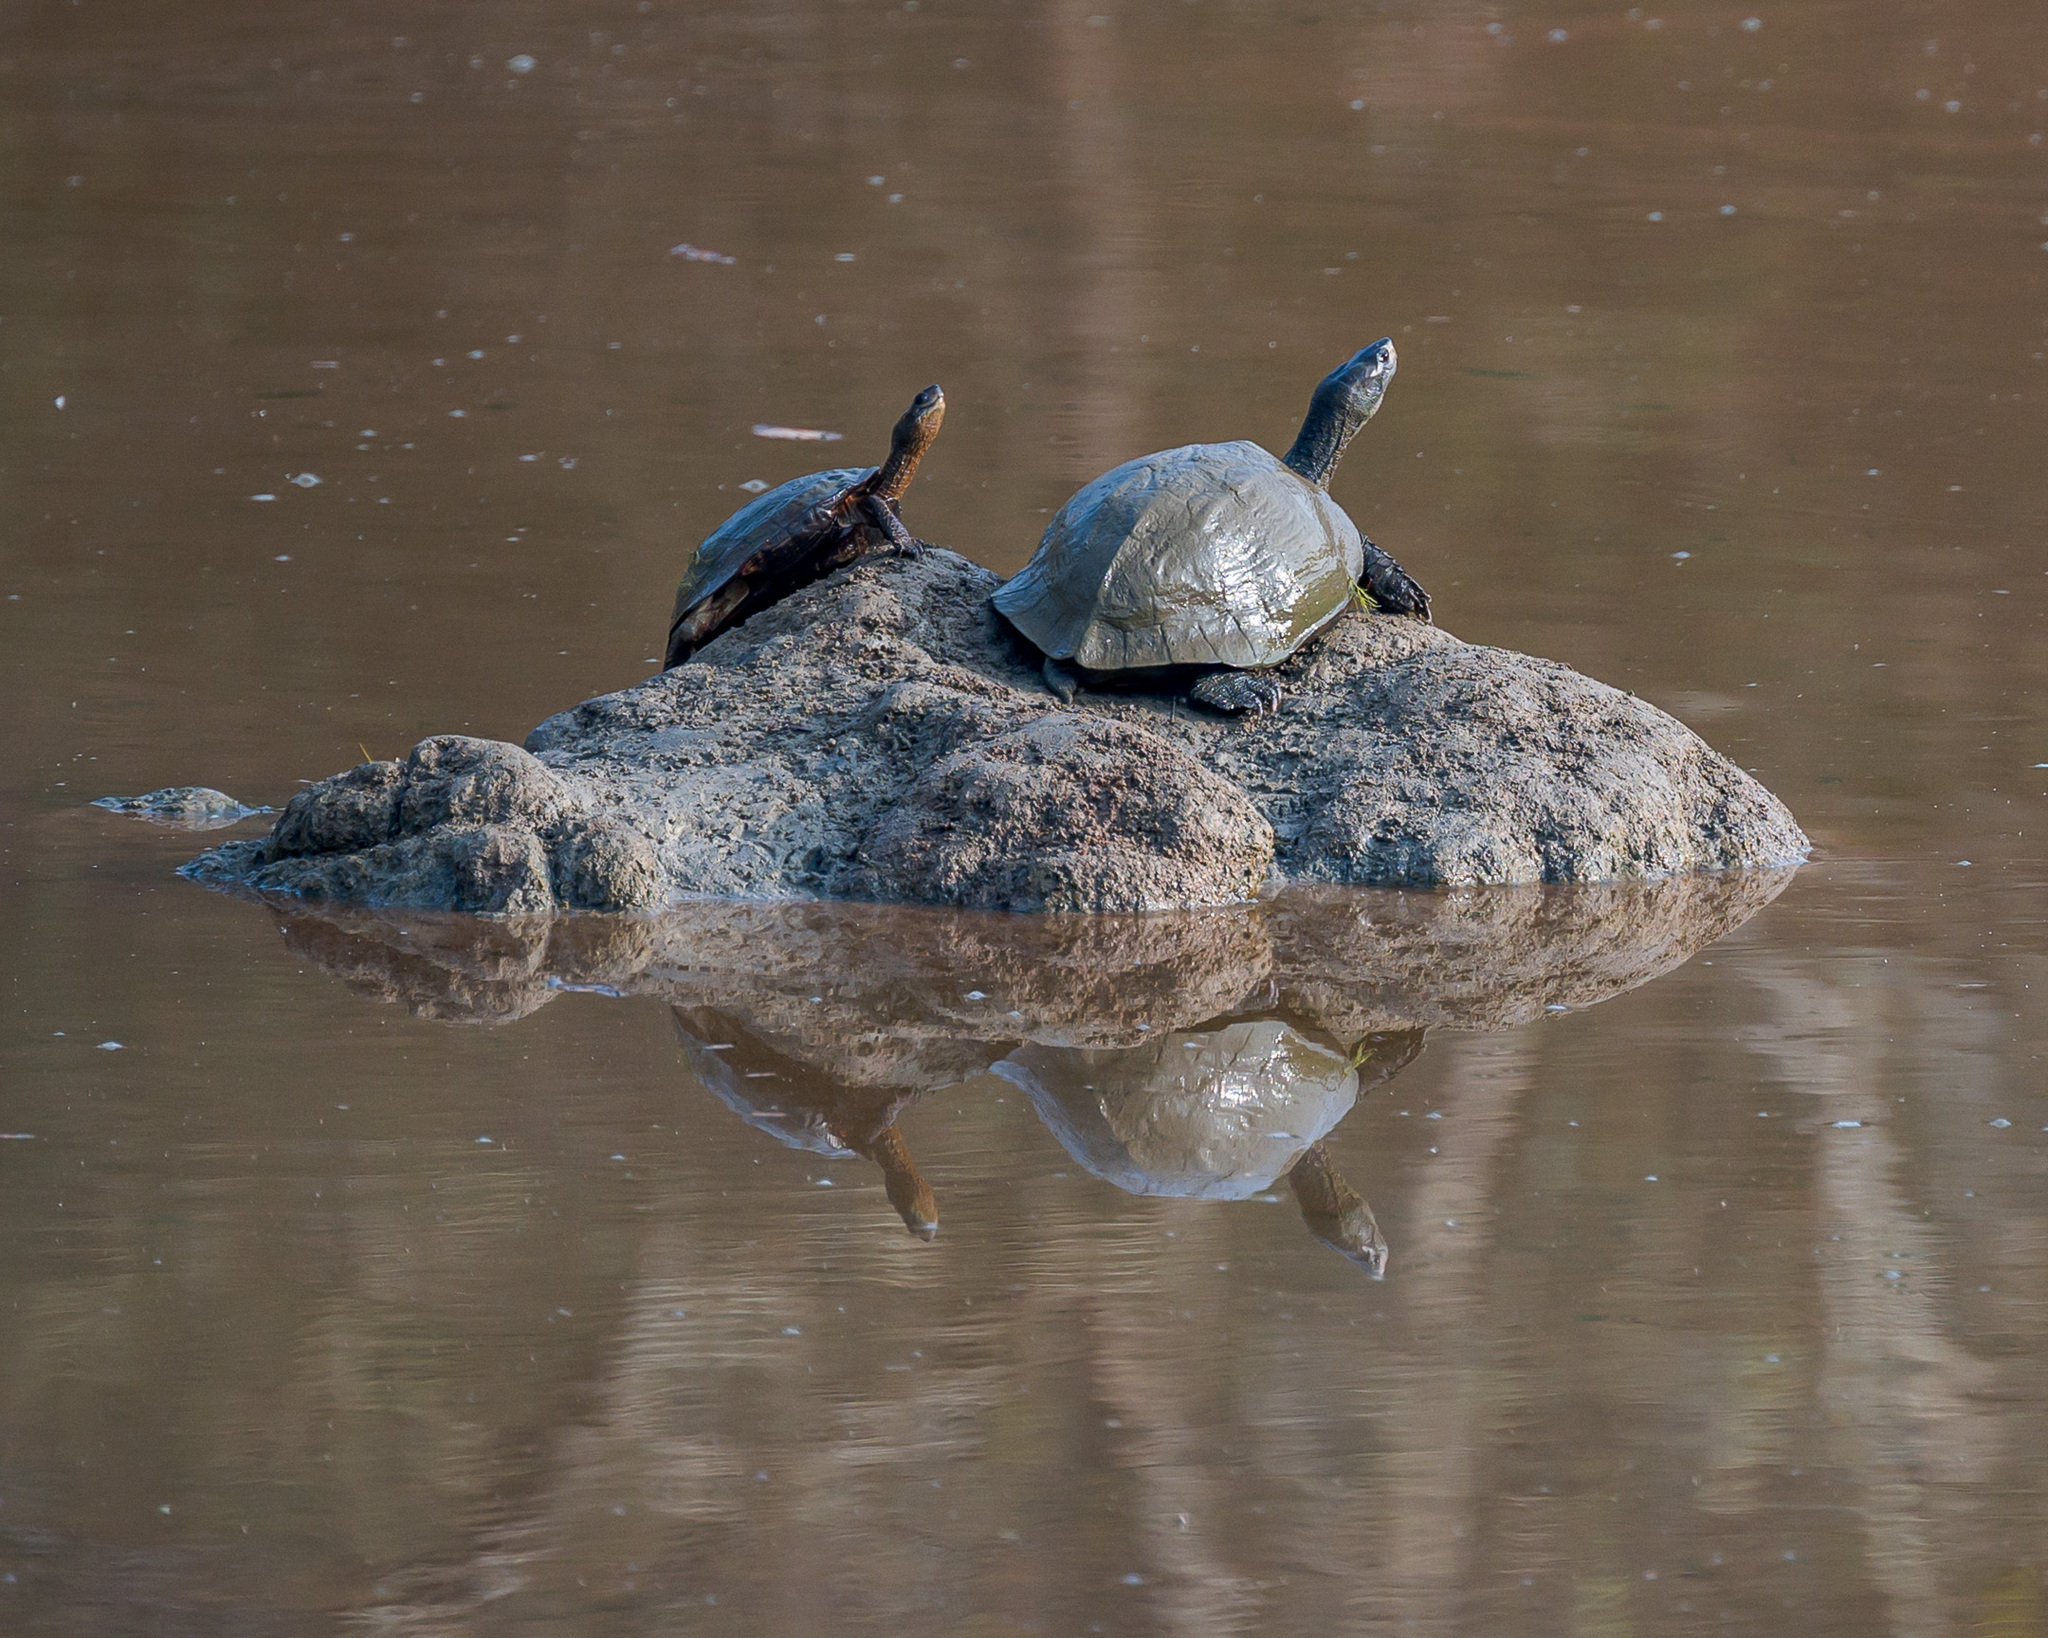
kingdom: Animalia
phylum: Chordata
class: Testudines
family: Geoemydidae
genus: Melanochelys
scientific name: Melanochelys trijuga
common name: Indian black turtle
